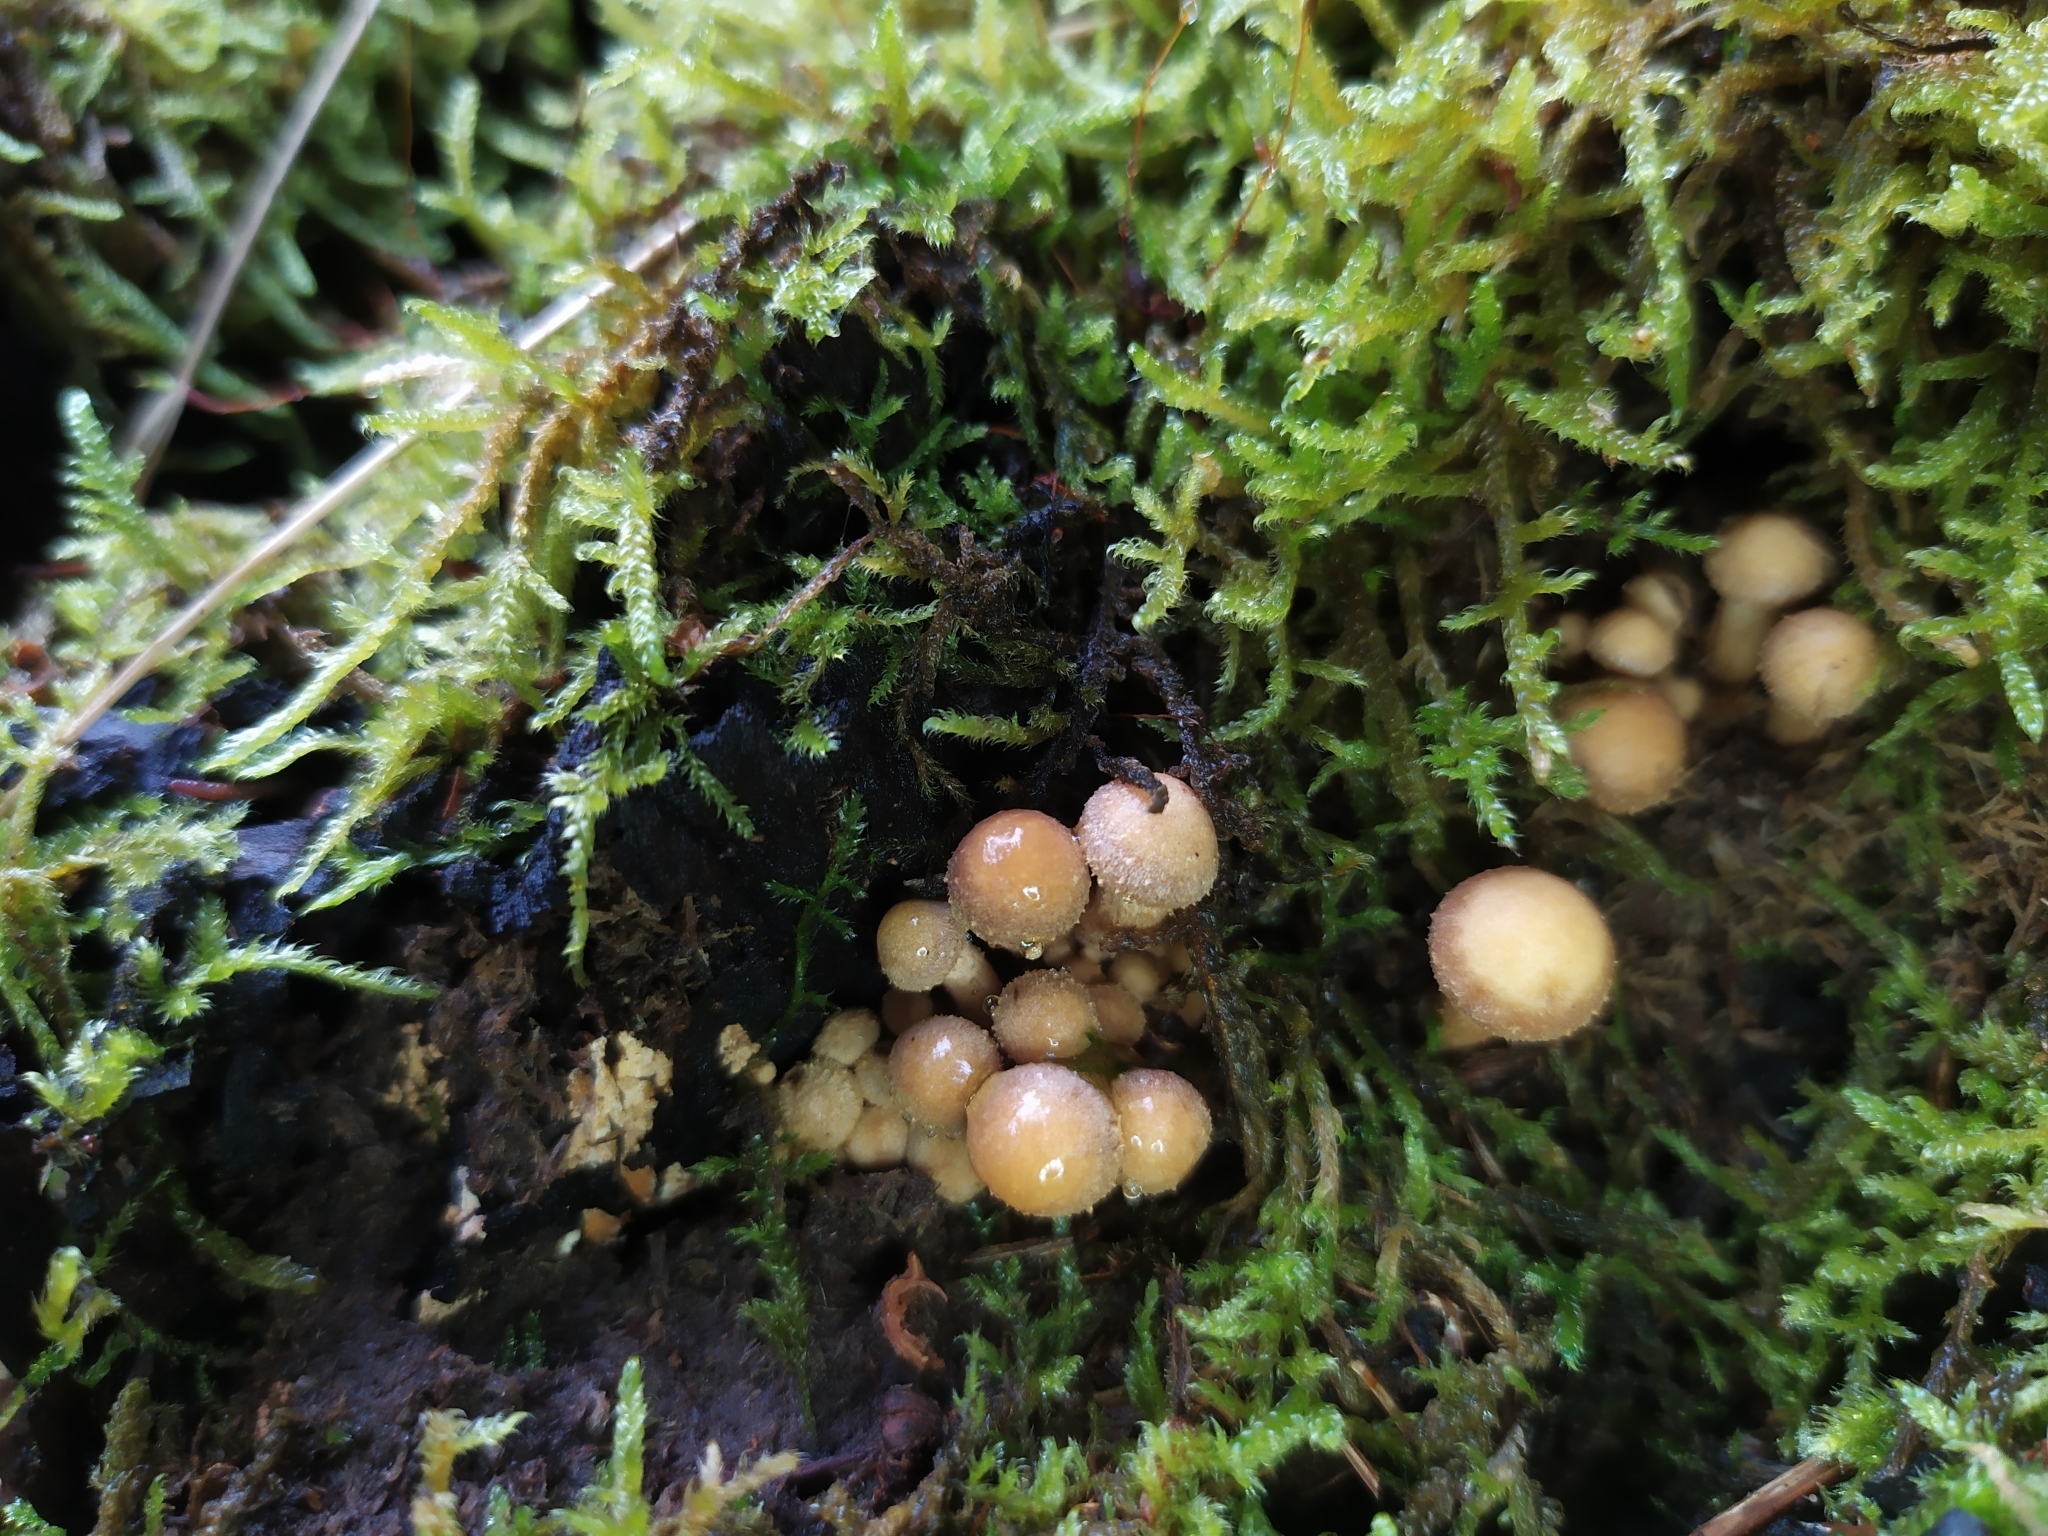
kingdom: Fungi
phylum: Basidiomycota
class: Agaricomycetes
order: Agaricales
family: Strophariaceae
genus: Kuehneromyces
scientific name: Kuehneromyces mutabilis
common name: Sheathed woodtuft
